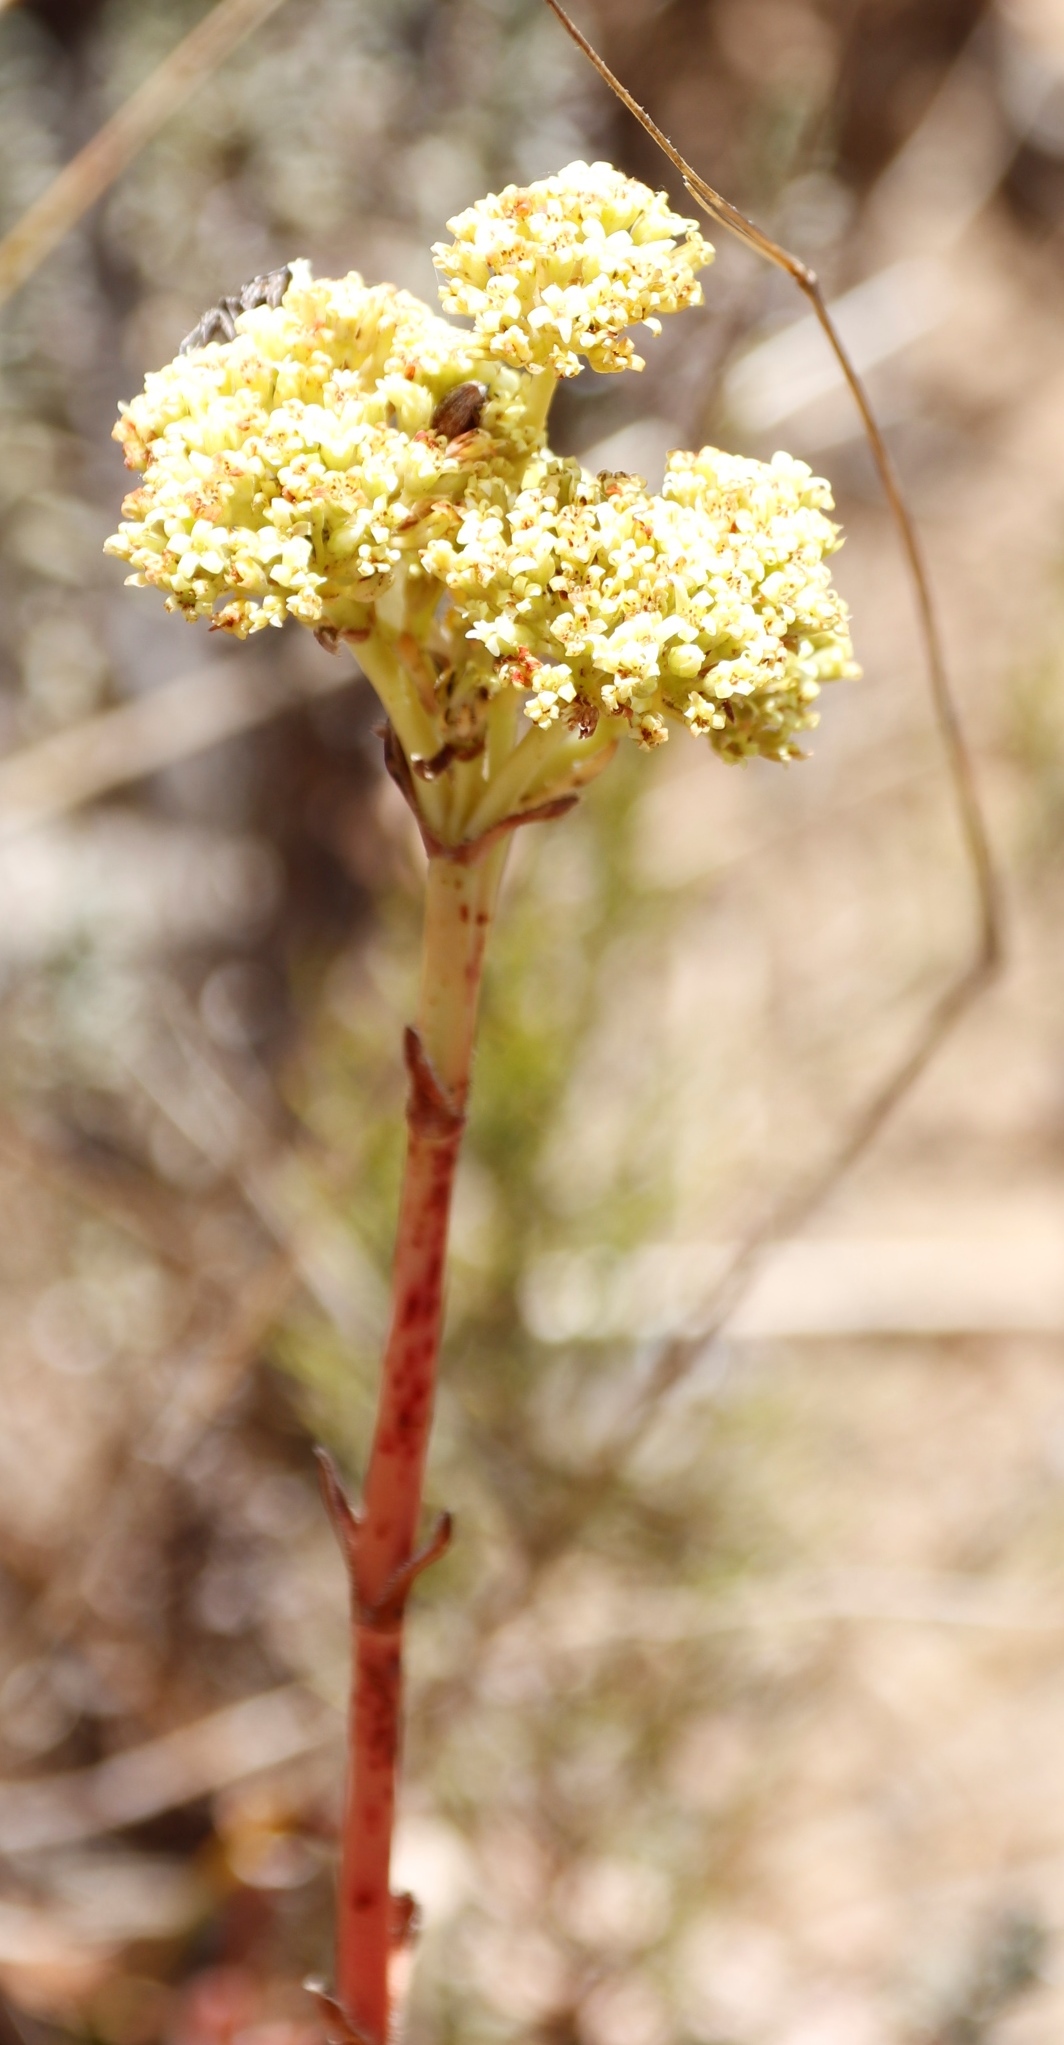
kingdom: Plantae
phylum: Tracheophyta
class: Magnoliopsida
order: Saxifragales
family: Crassulaceae
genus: Crassula
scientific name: Crassula ciliata
